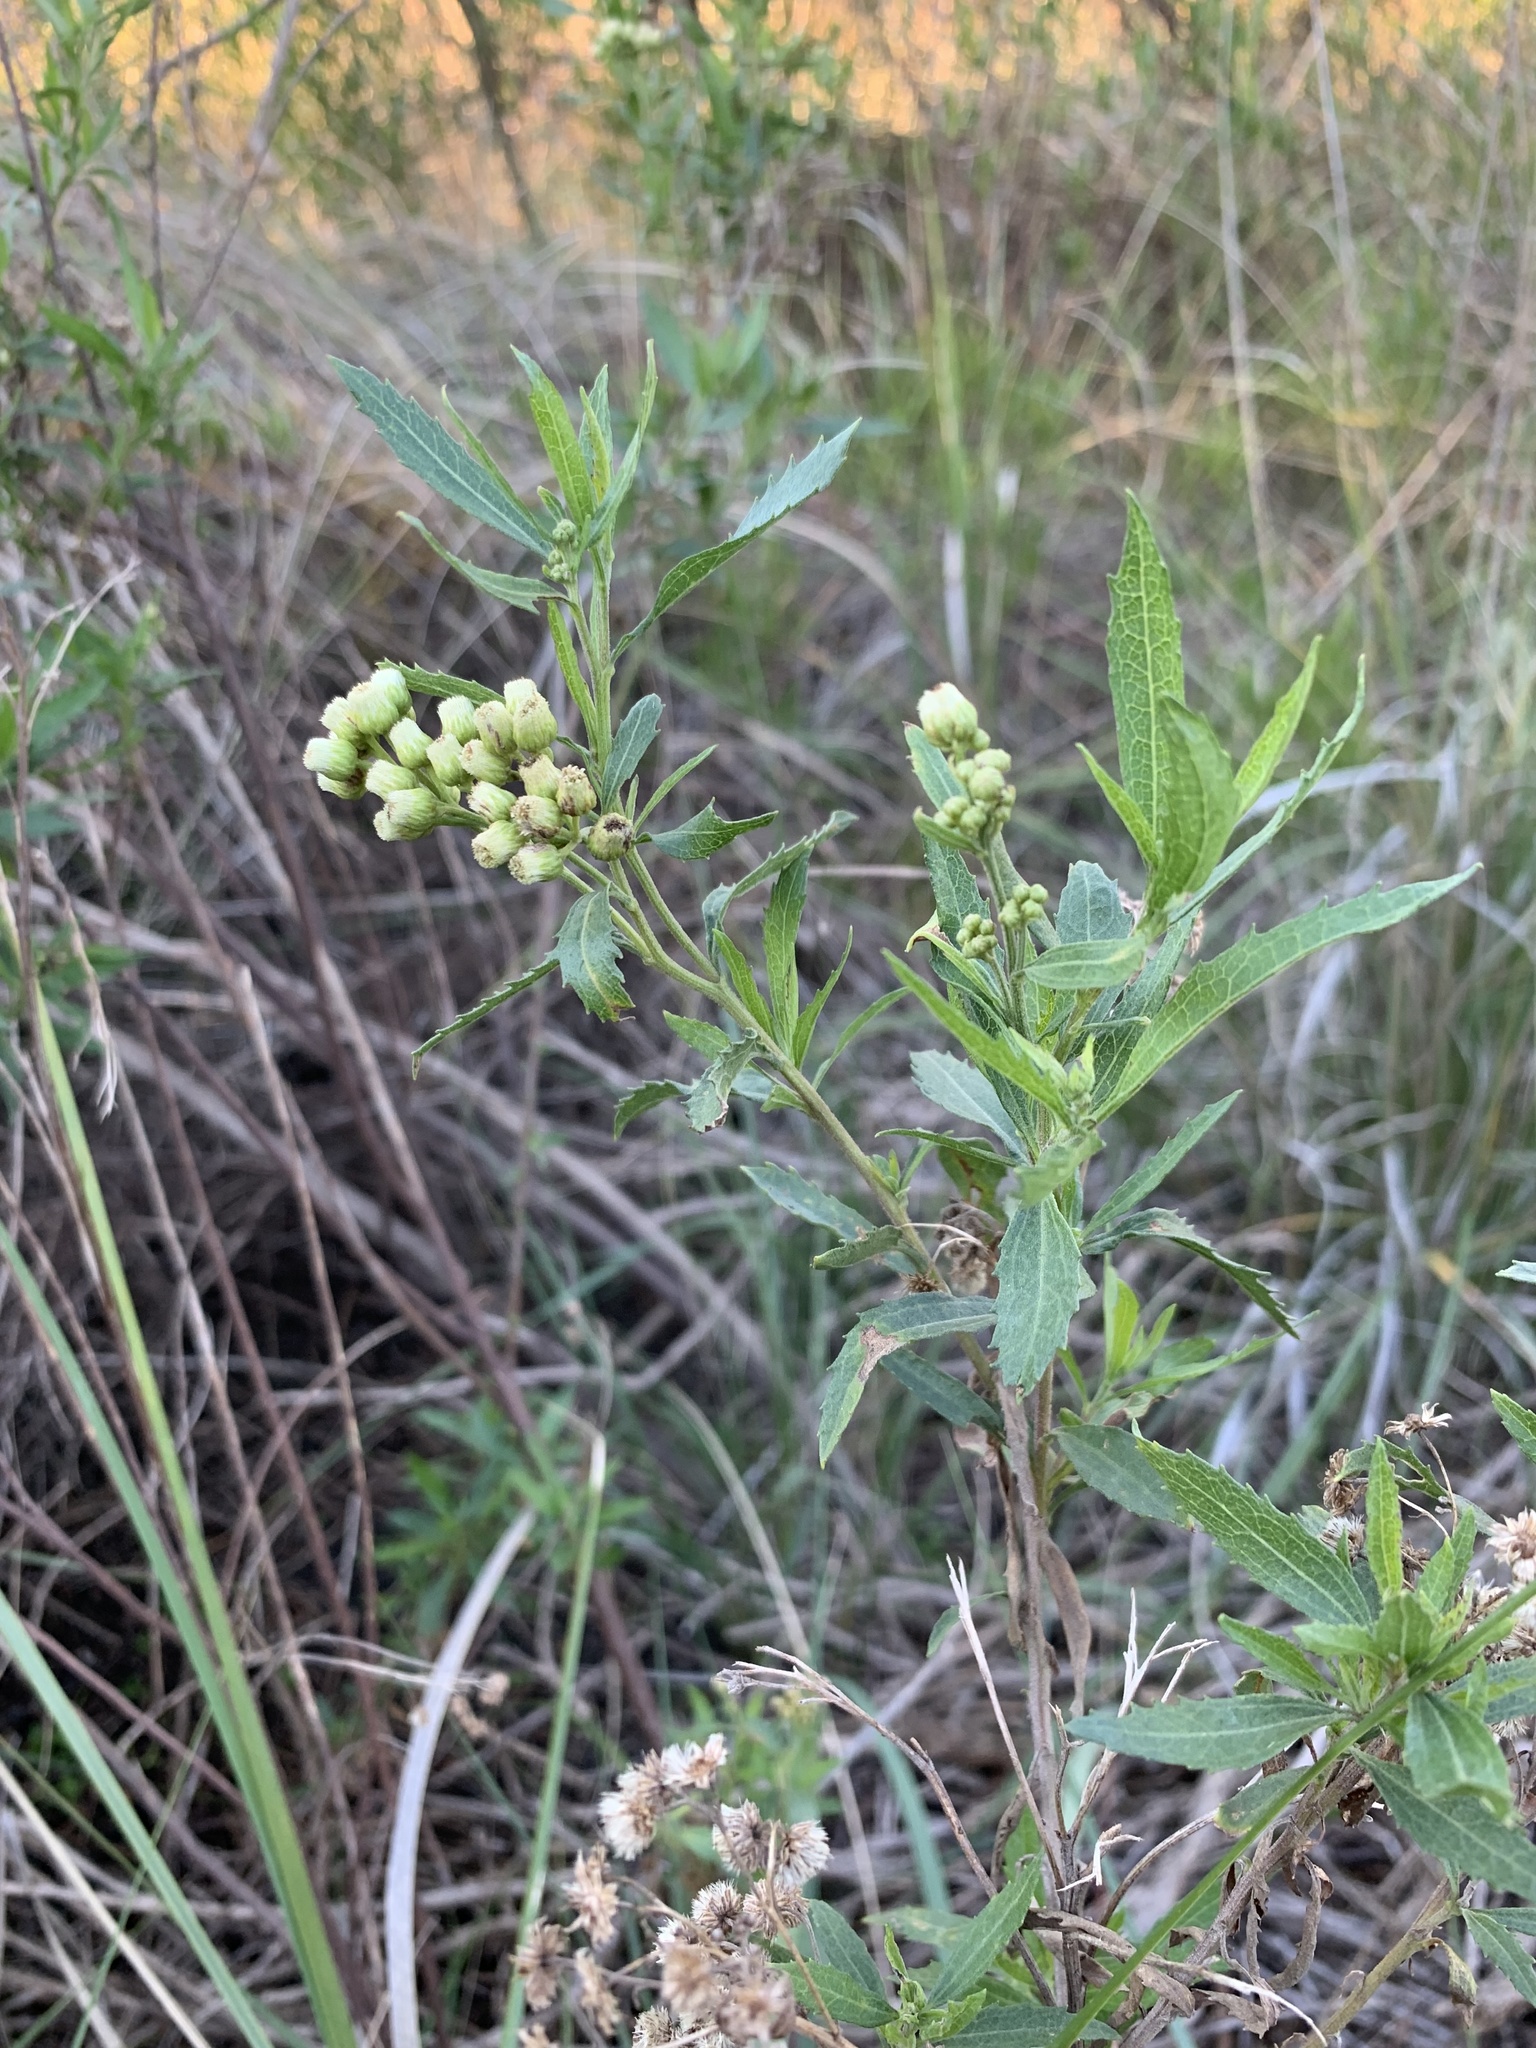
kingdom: Plantae
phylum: Tracheophyta
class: Magnoliopsida
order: Asterales
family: Asteraceae
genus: Nidorella
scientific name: Nidorella ivifolia
